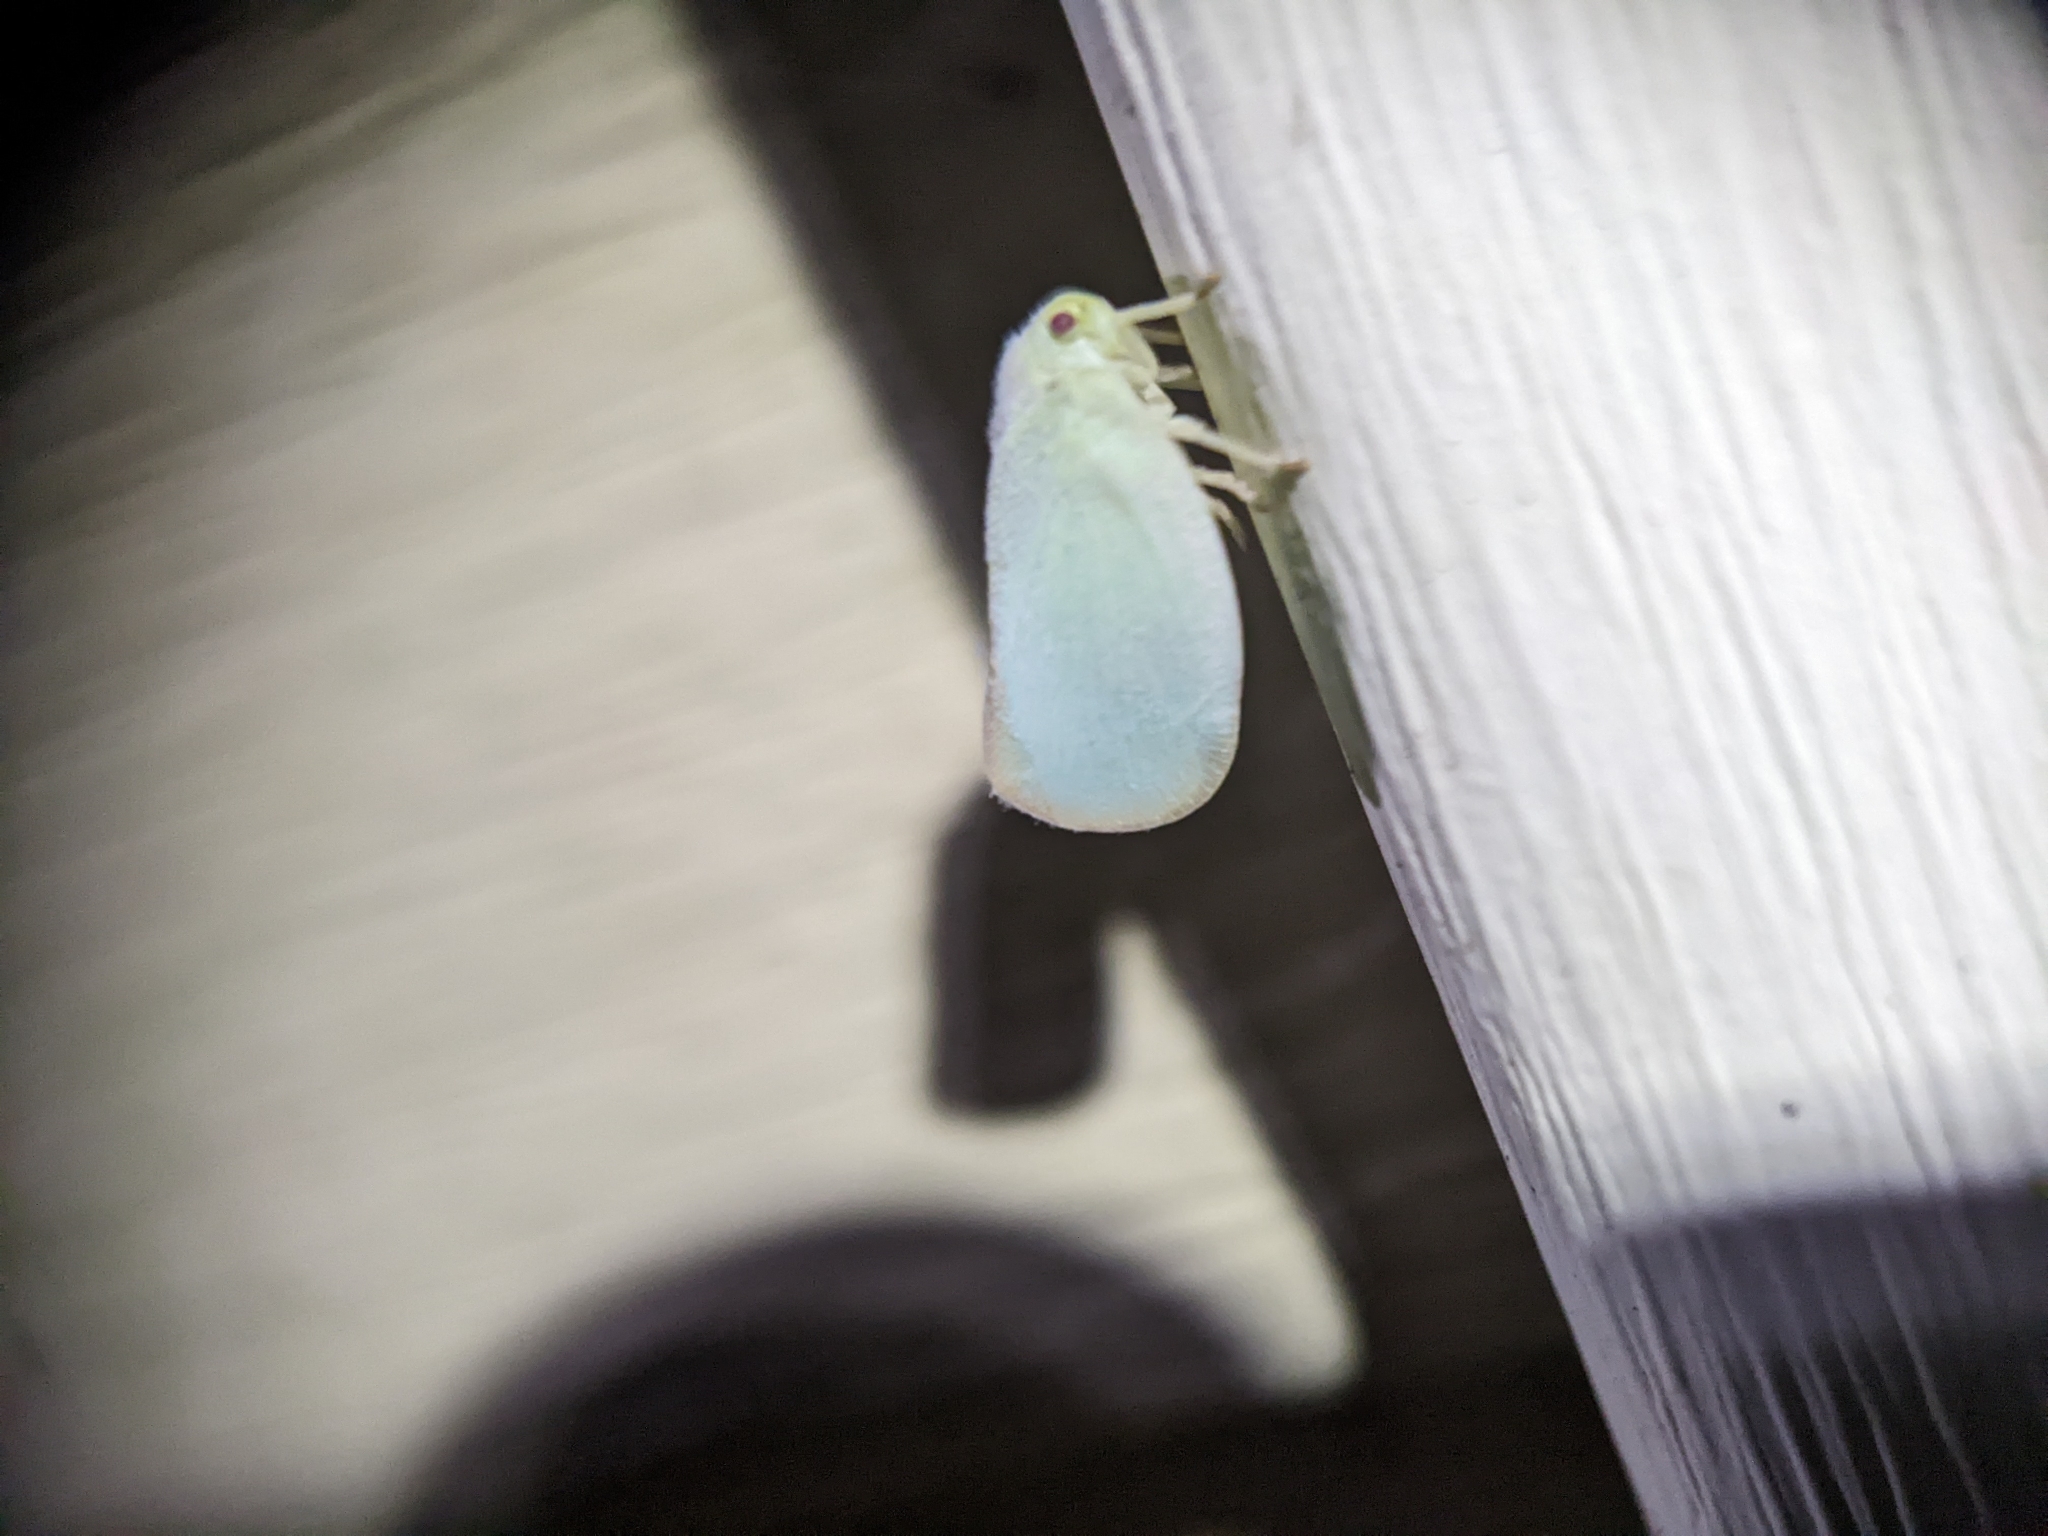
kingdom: Animalia
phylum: Arthropoda
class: Insecta
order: Hemiptera
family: Flatidae
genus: Ormenoides
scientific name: Ormenoides venusta
